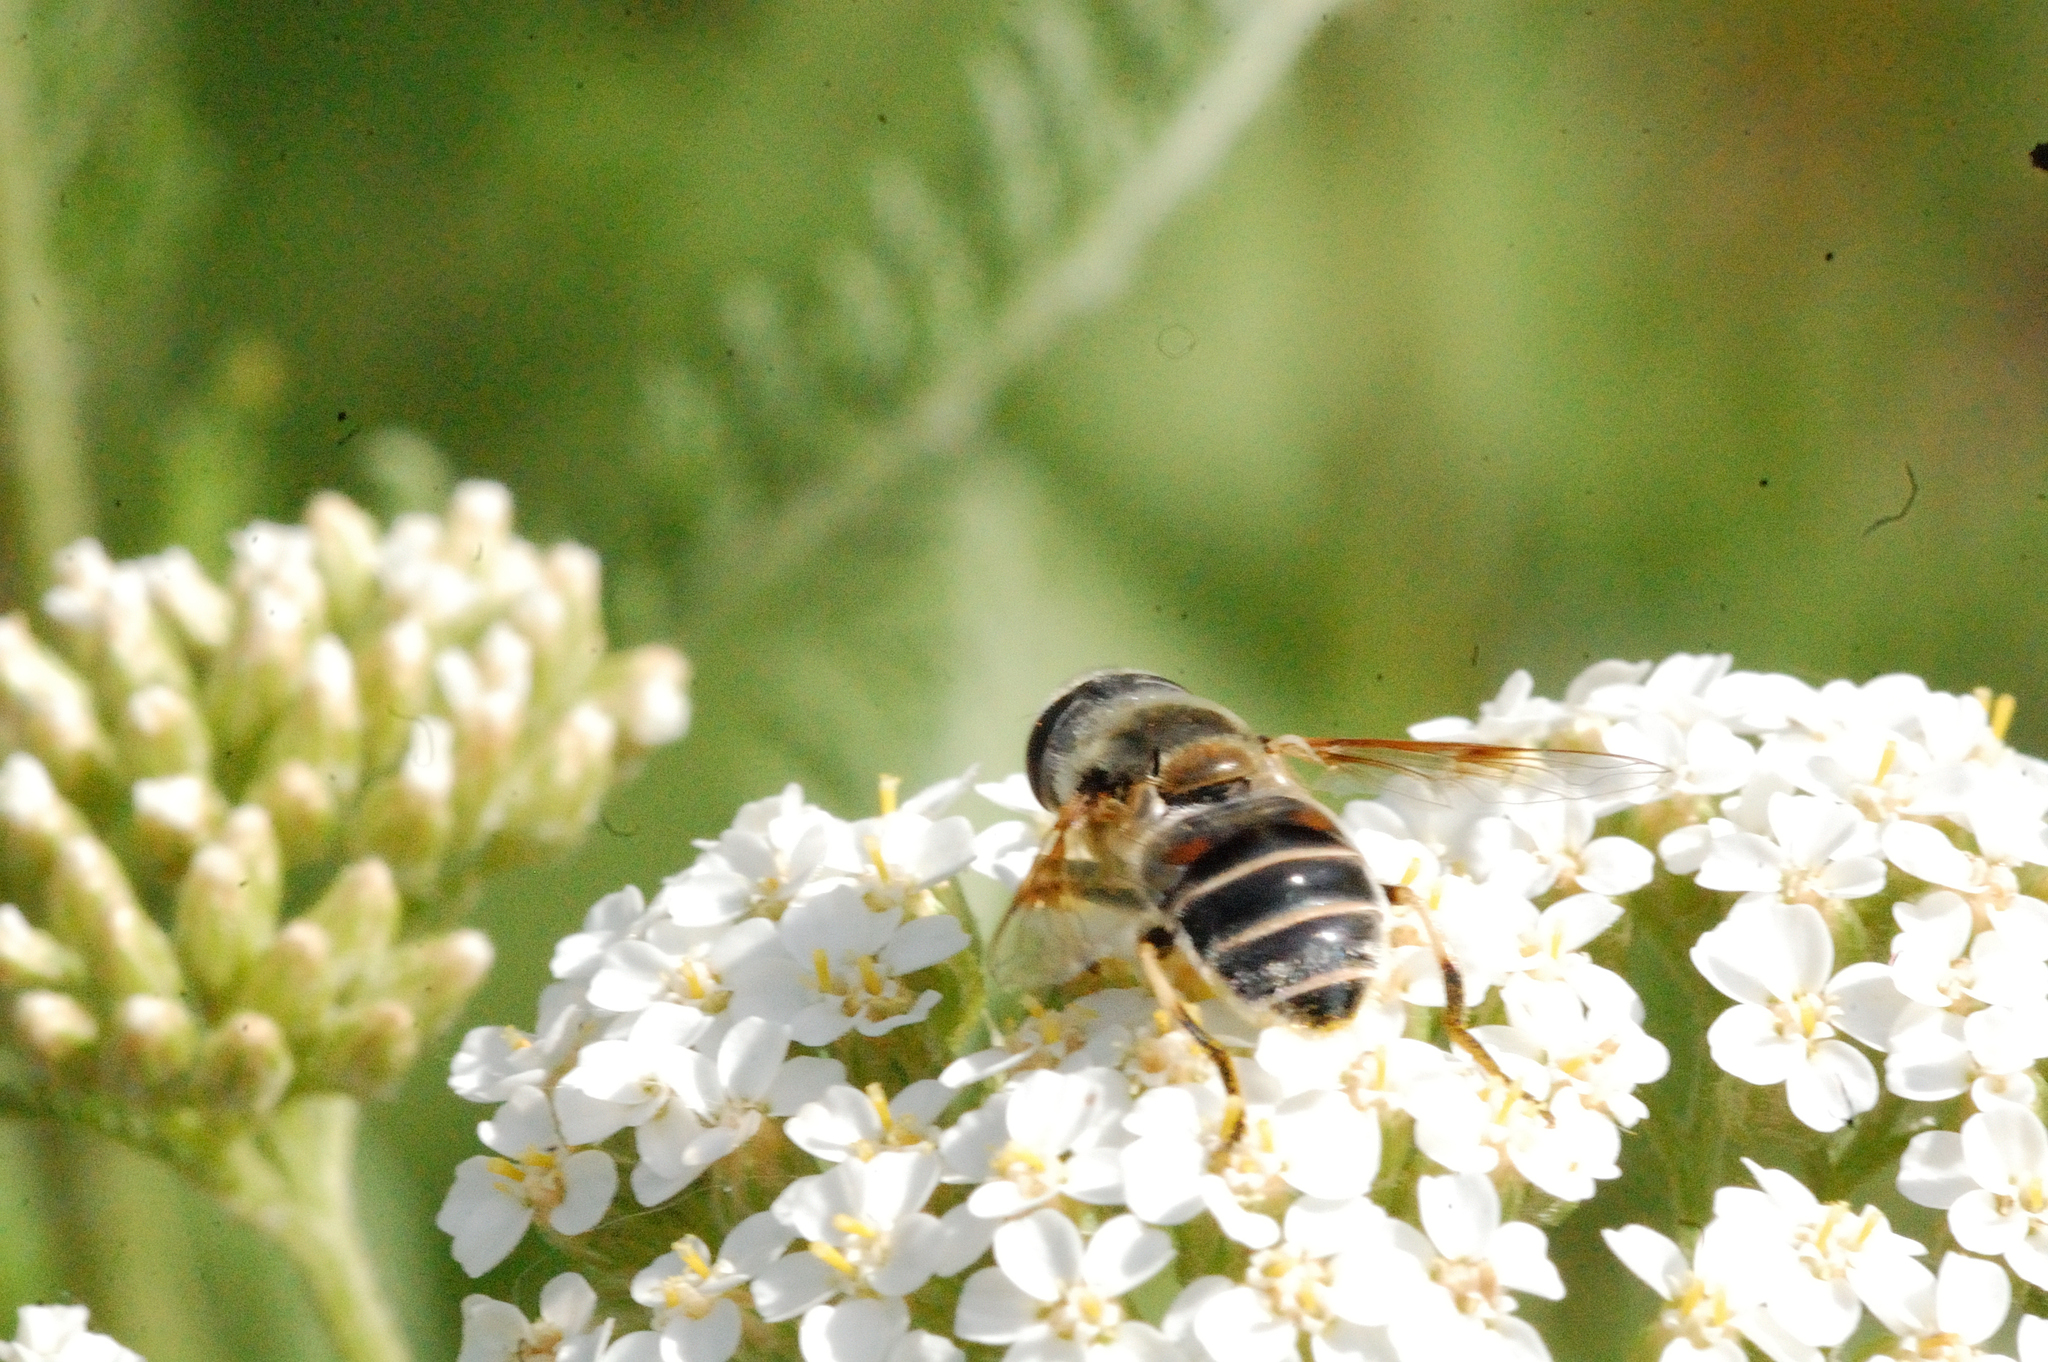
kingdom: Animalia
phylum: Arthropoda
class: Insecta
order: Diptera
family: Syrphidae
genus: Eristalis
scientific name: Eristalis stipator
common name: Yellow-shouldered drone fly
